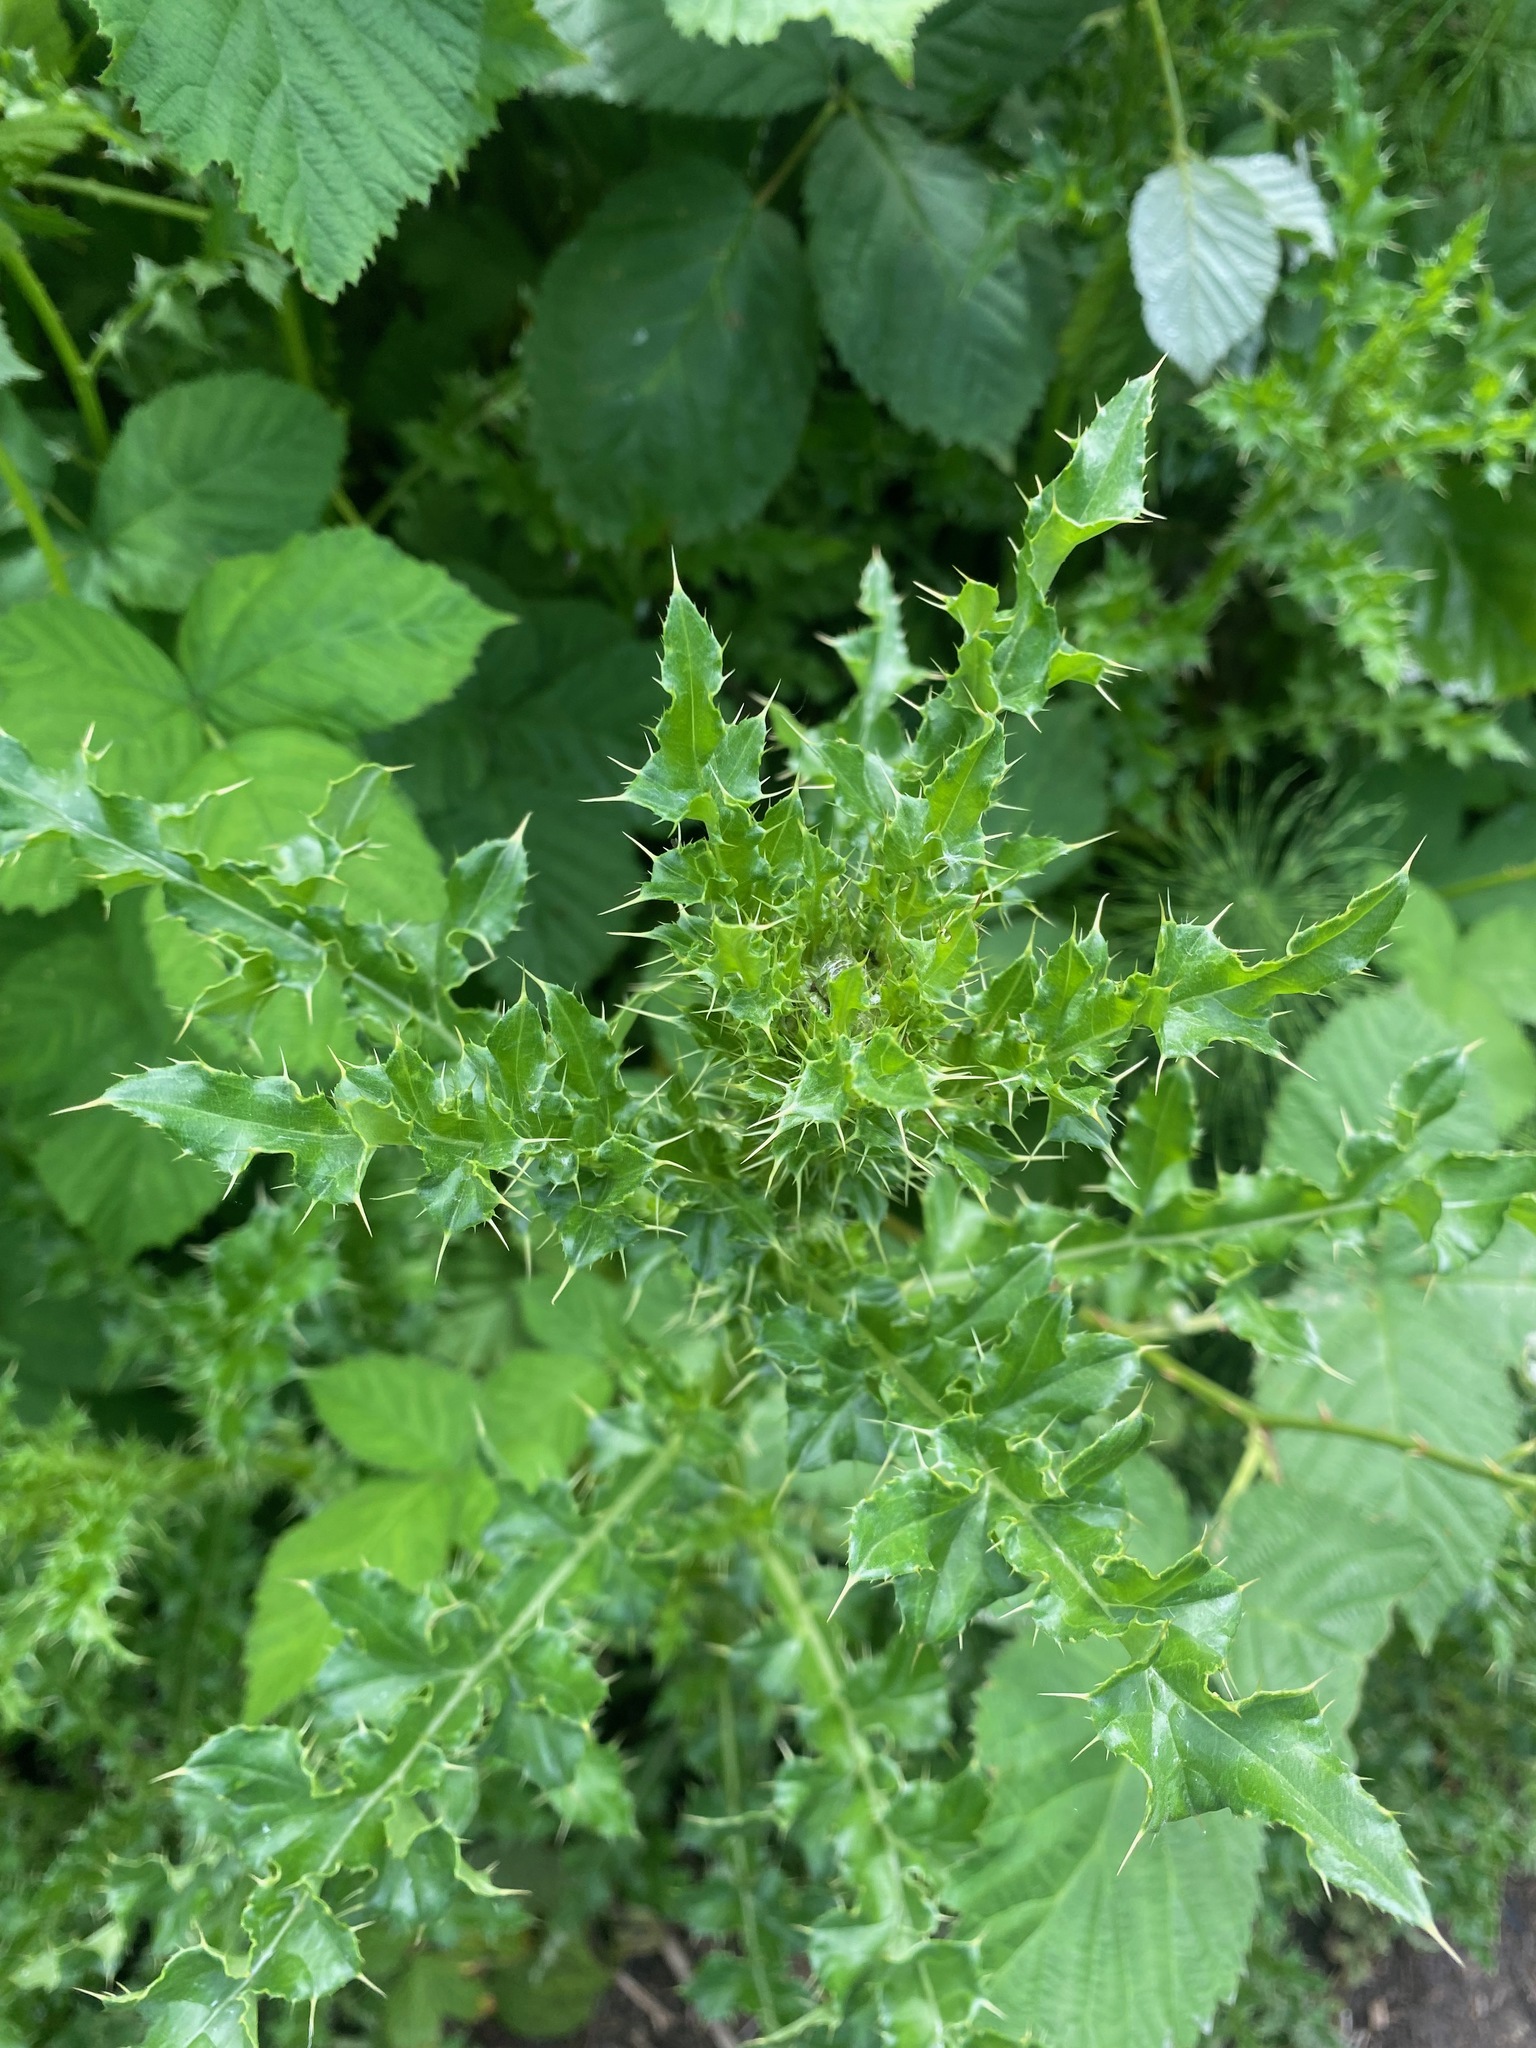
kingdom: Plantae
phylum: Tracheophyta
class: Magnoliopsida
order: Asterales
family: Asteraceae
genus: Cirsium
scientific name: Cirsium arvense
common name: Creeping thistle
